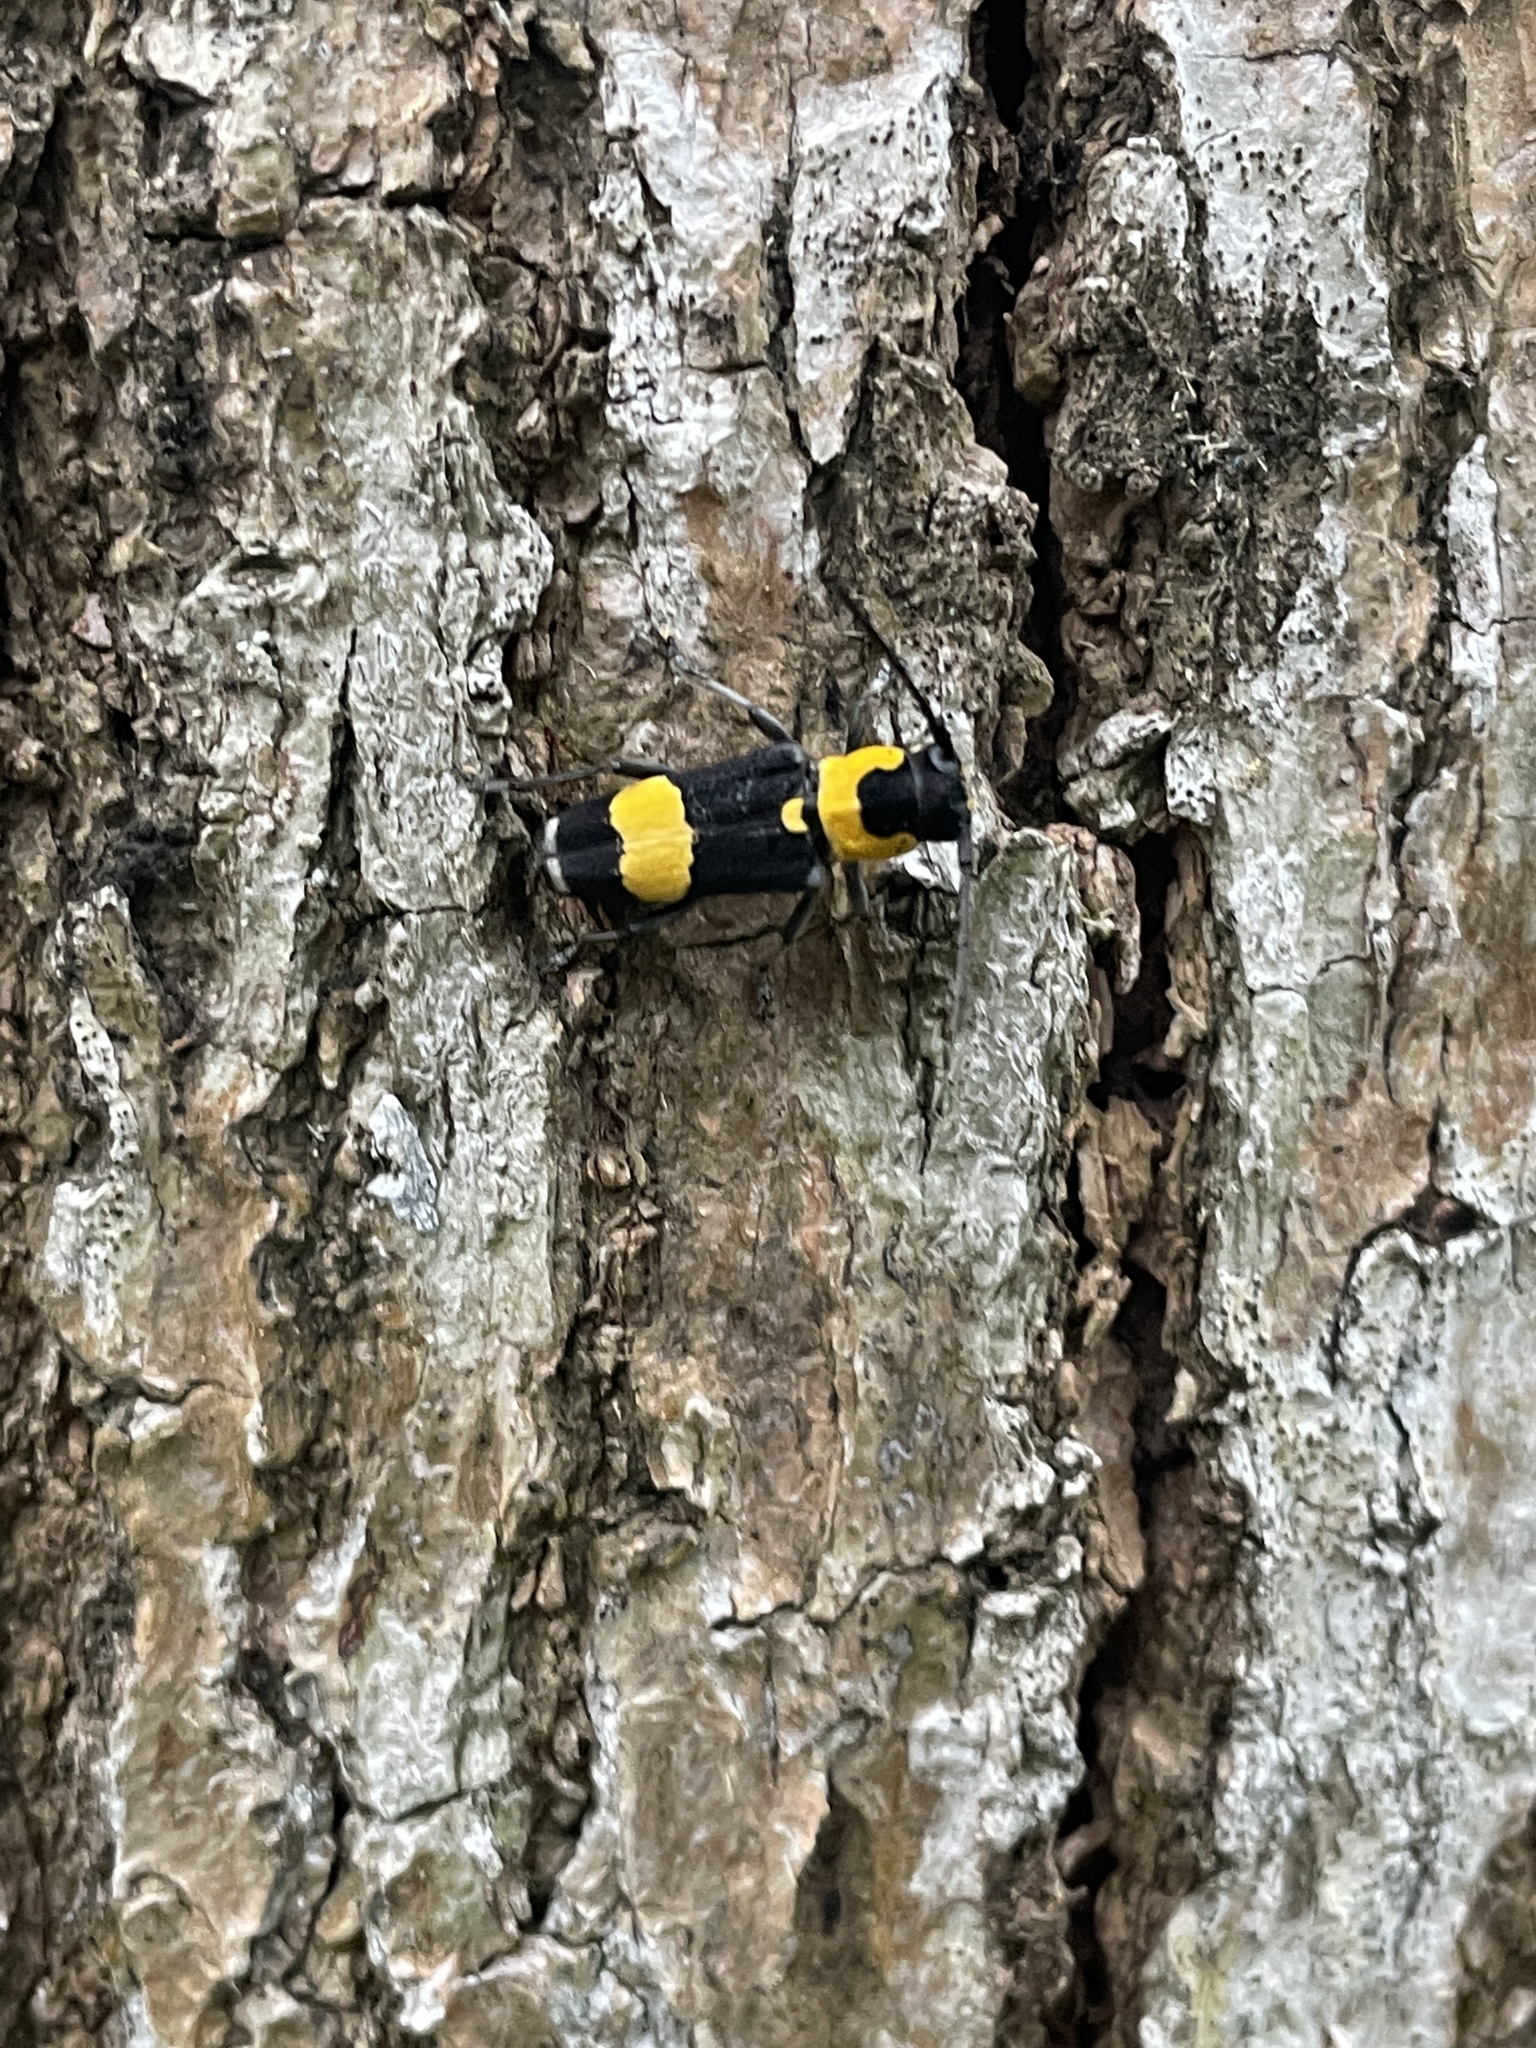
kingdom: Animalia
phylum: Arthropoda
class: Insecta
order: Coleoptera
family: Cerambycidae
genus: Glenea
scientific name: Glenea mouhotii
